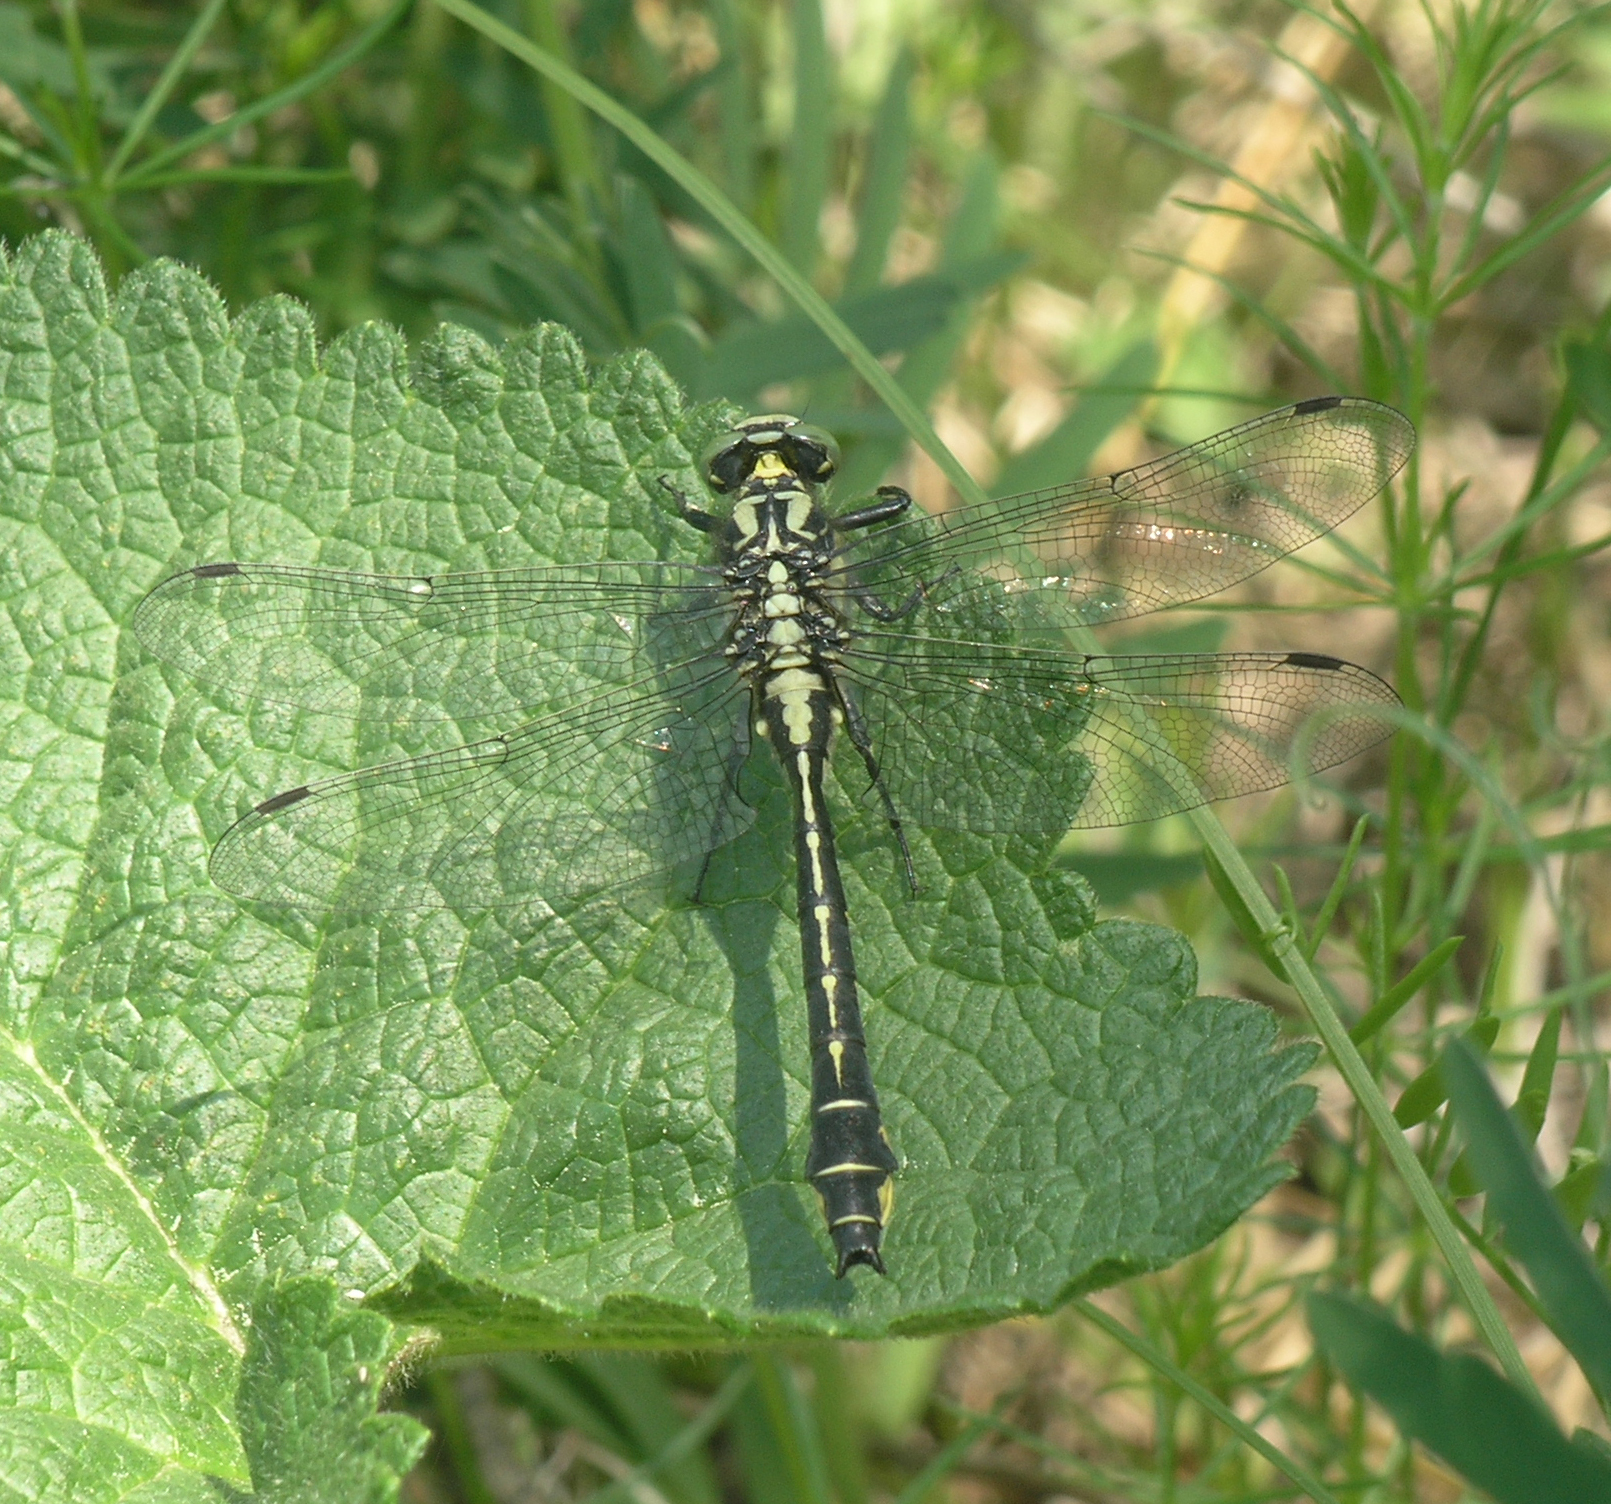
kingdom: Animalia
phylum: Arthropoda
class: Insecta
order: Odonata
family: Gomphidae
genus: Gomphus
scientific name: Gomphus vulgatissimus
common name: Club-tailed dragonfly
